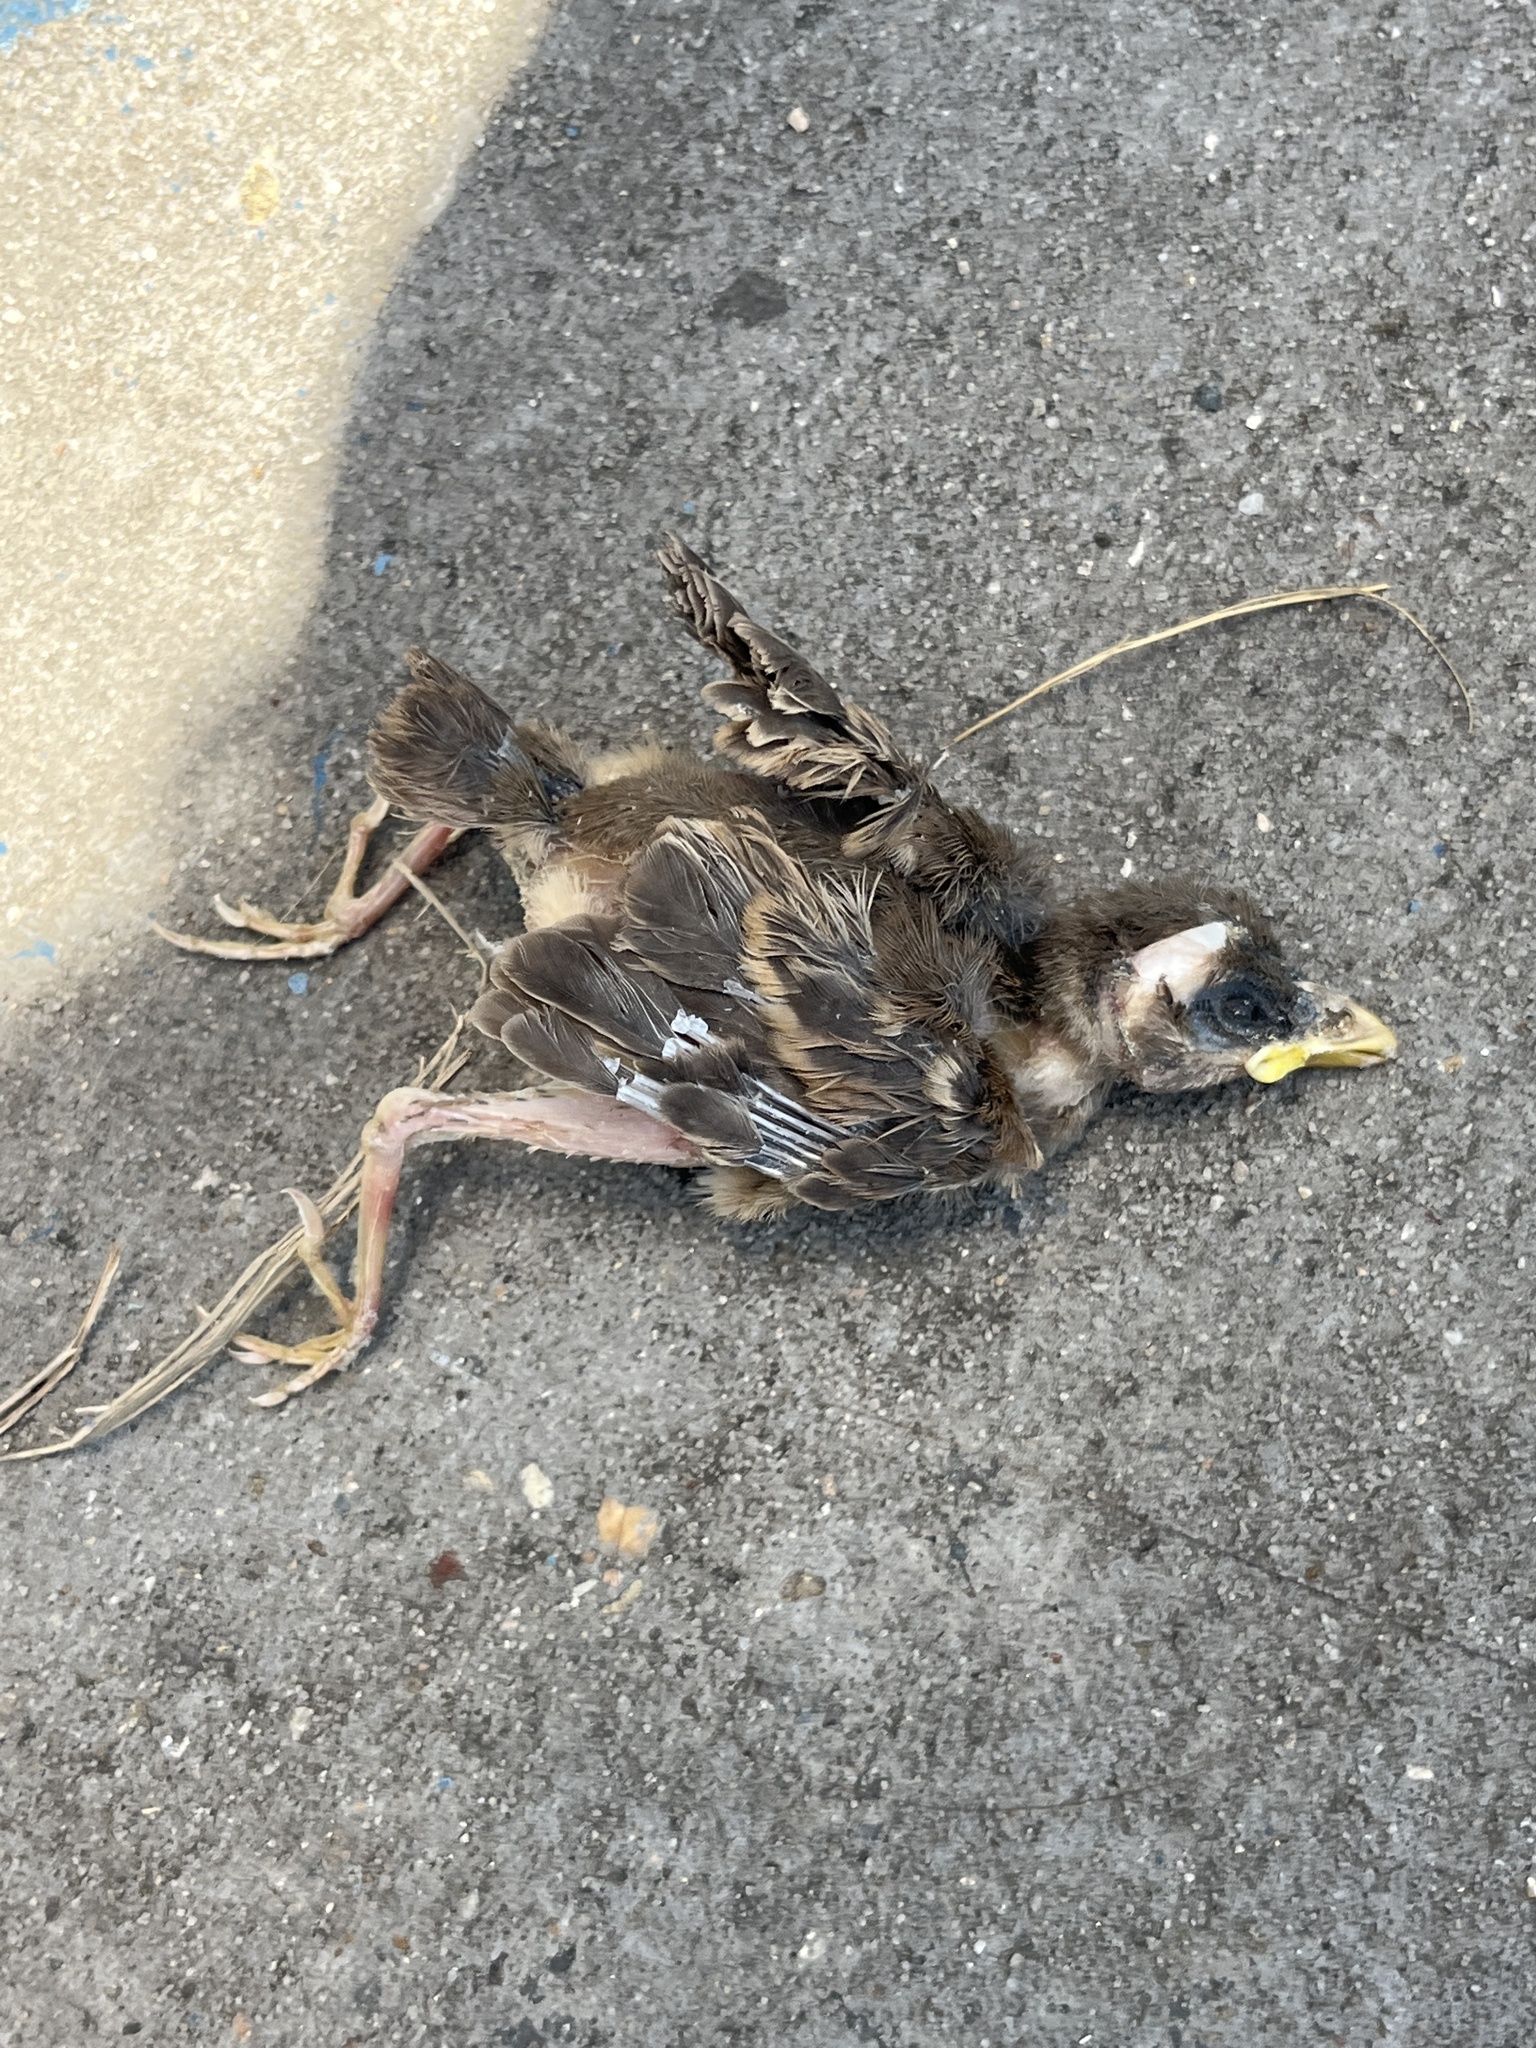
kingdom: Animalia
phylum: Chordata
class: Aves
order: Passeriformes
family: Passeridae
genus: Passer
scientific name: Passer domesticus
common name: House sparrow
